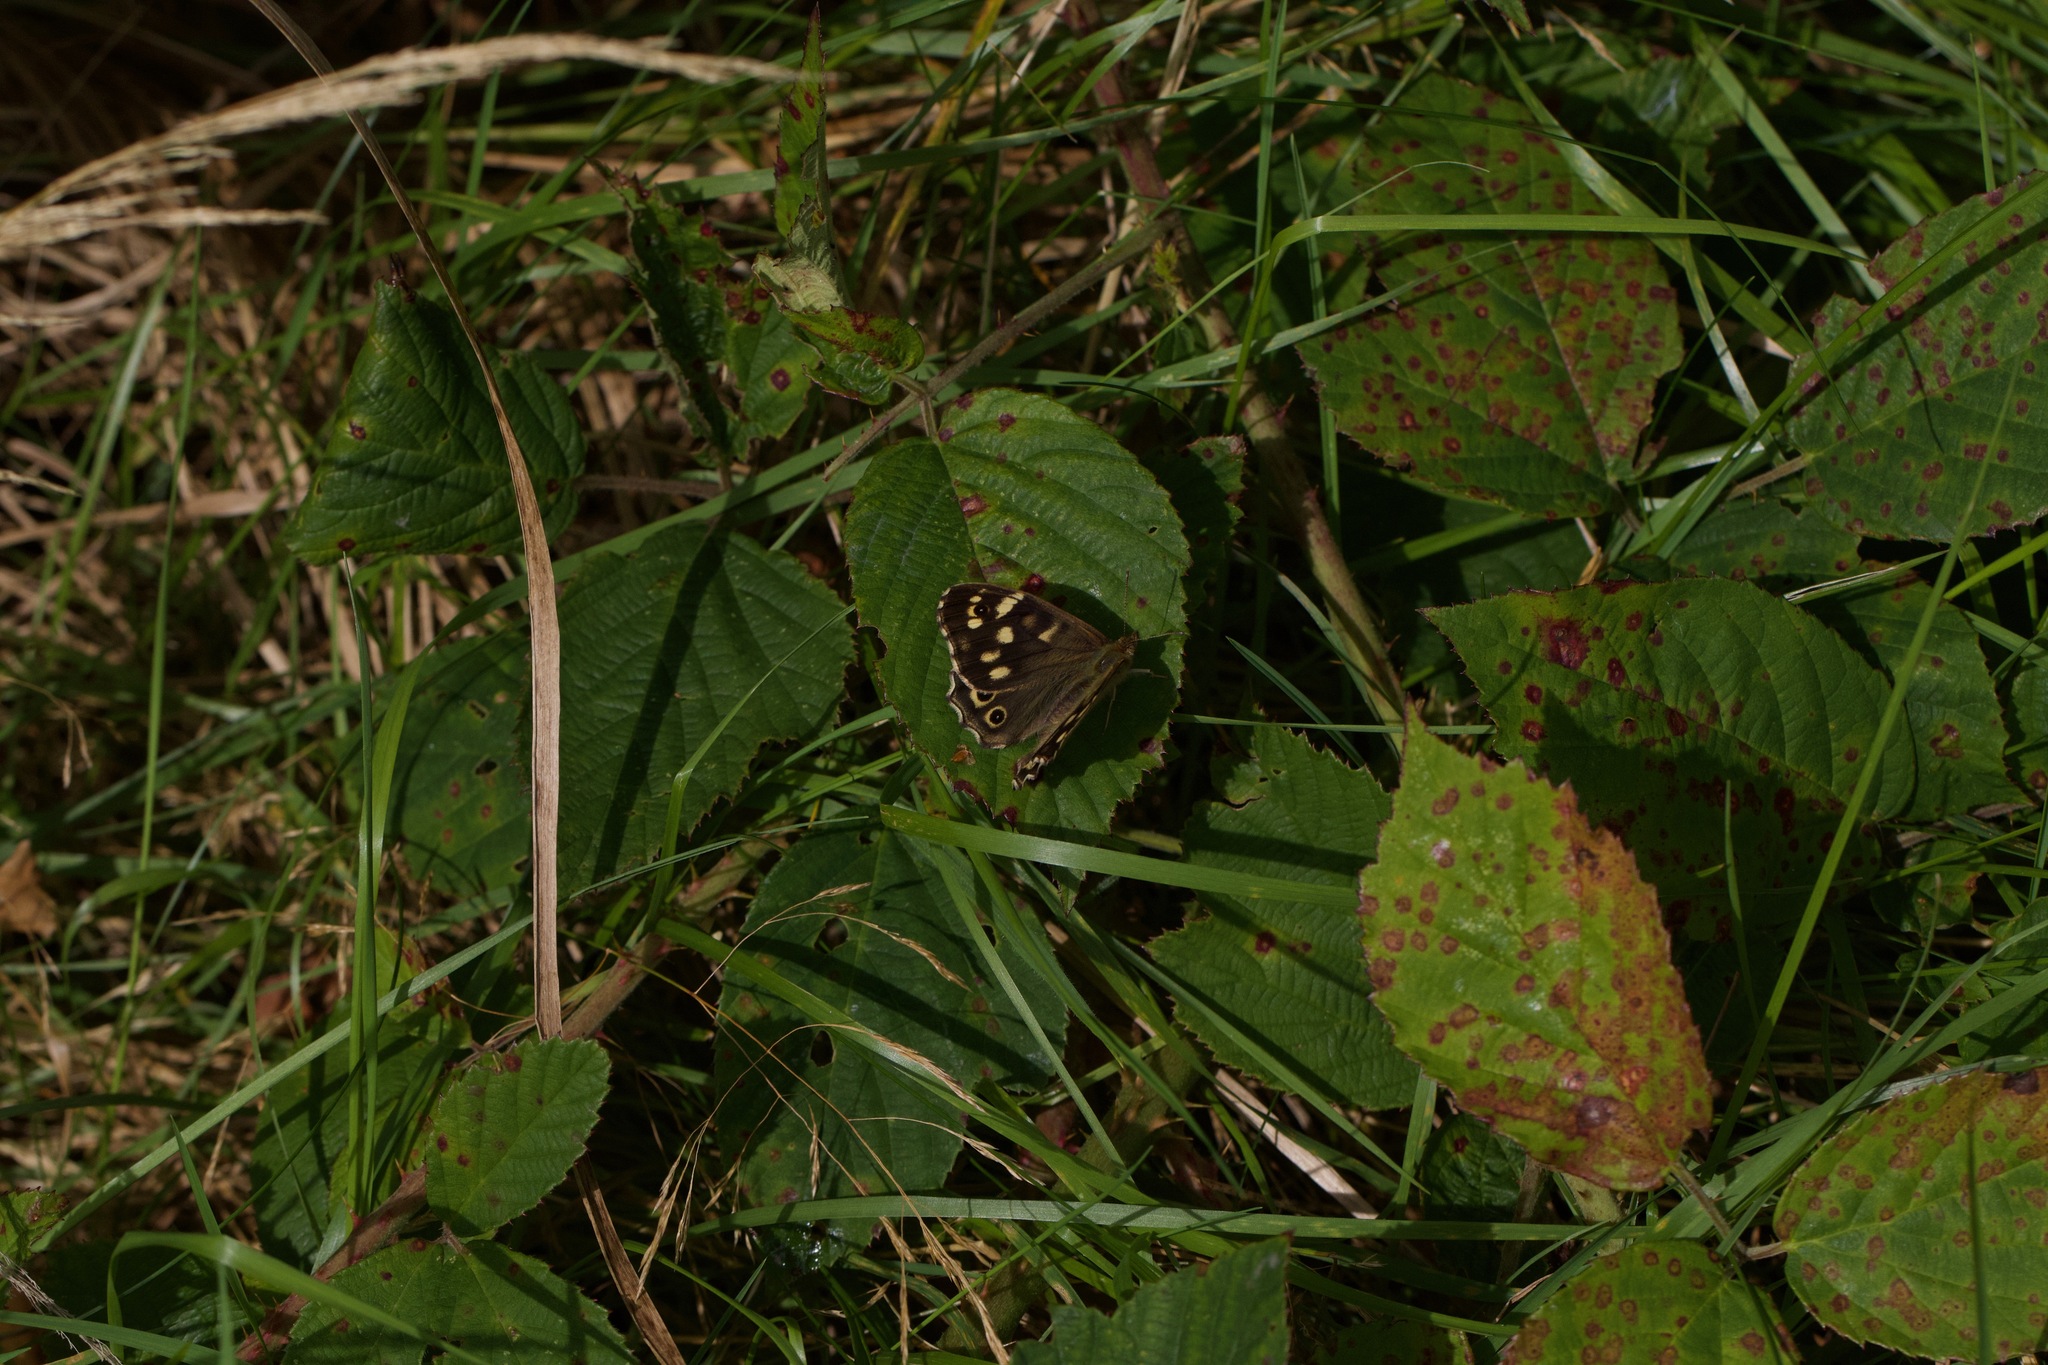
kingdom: Animalia
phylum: Arthropoda
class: Insecta
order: Lepidoptera
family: Nymphalidae
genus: Pararge
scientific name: Pararge aegeria
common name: Speckled wood
